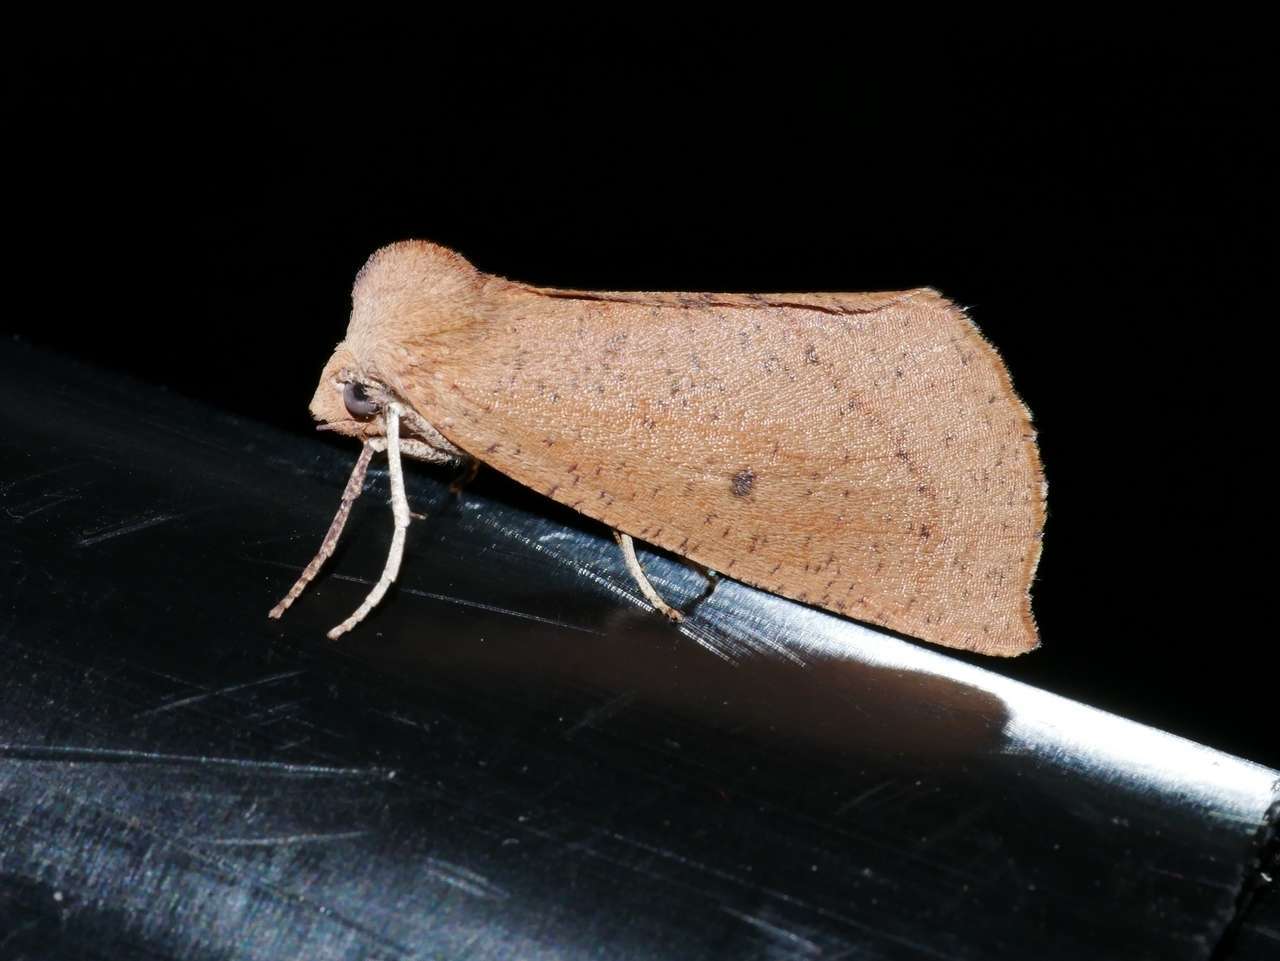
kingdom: Animalia
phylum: Arthropoda
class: Insecta
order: Lepidoptera
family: Geometridae
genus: Fisera
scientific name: Fisera hypoleuca
